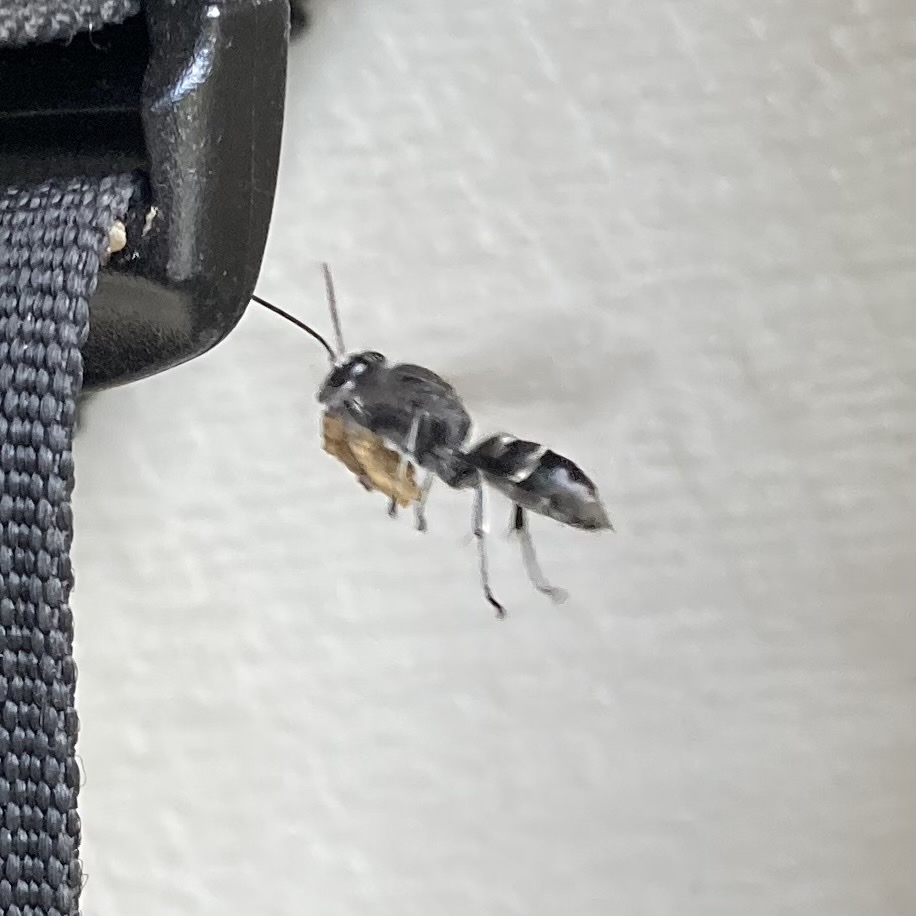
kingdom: Animalia
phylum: Arthropoda
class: Insecta
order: Hymenoptera
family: Crabronidae
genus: Pison
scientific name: Pison spinolae
